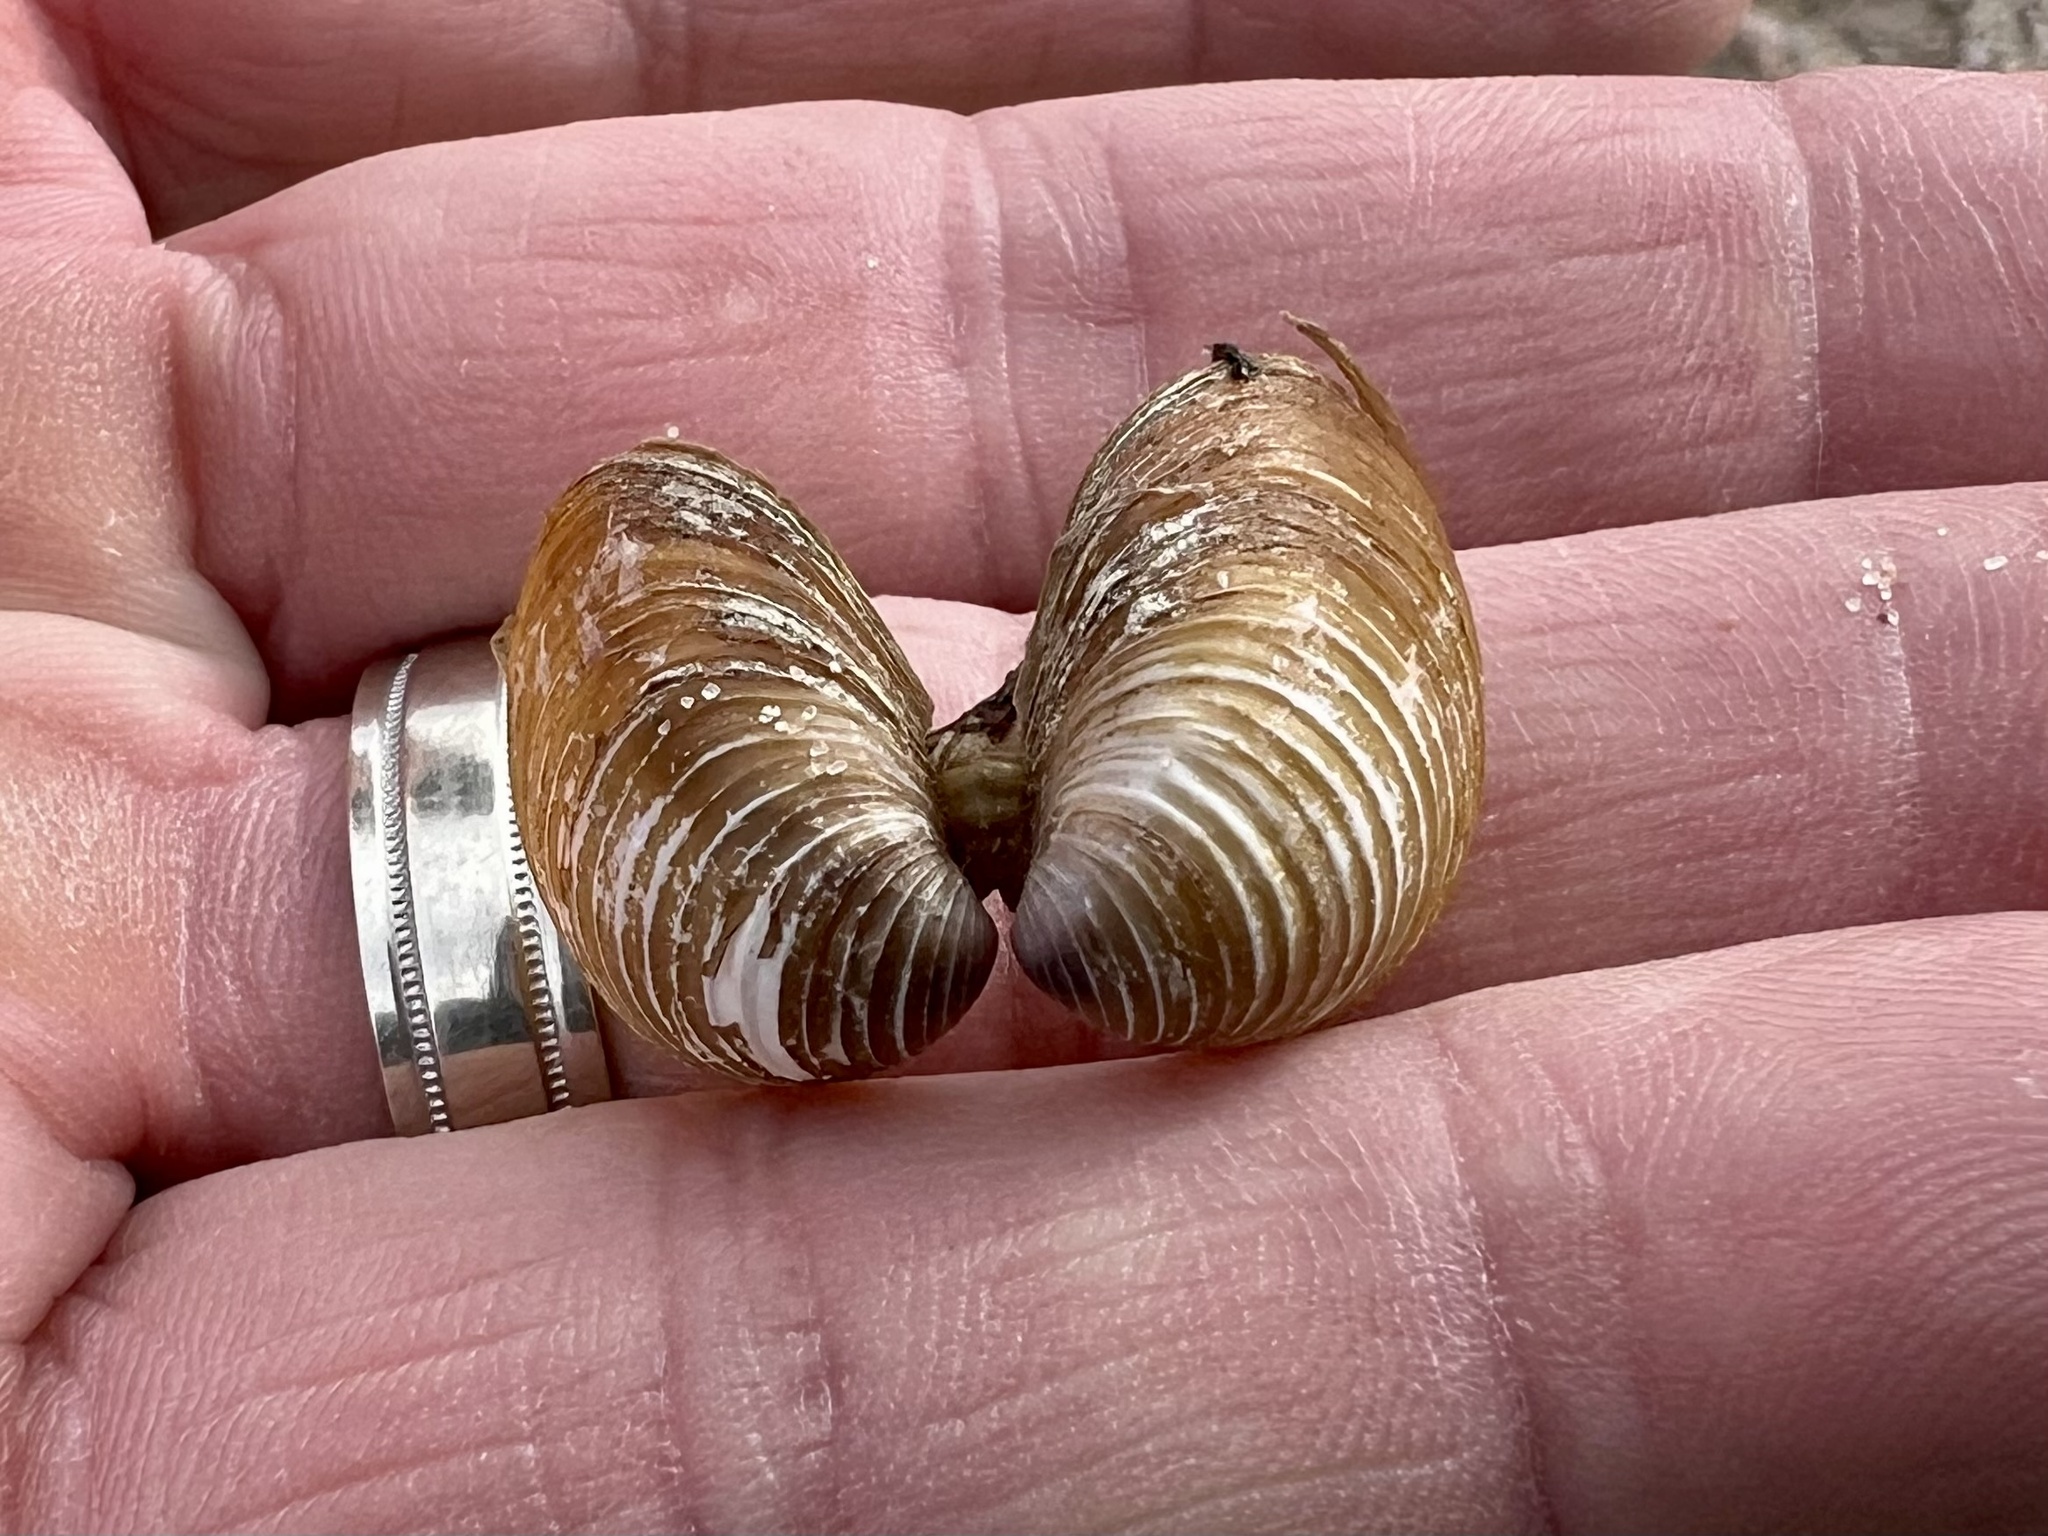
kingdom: Animalia
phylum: Mollusca
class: Bivalvia
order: Venerida
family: Cyrenidae
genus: Corbicula
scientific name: Corbicula fluminea
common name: Asian clam
